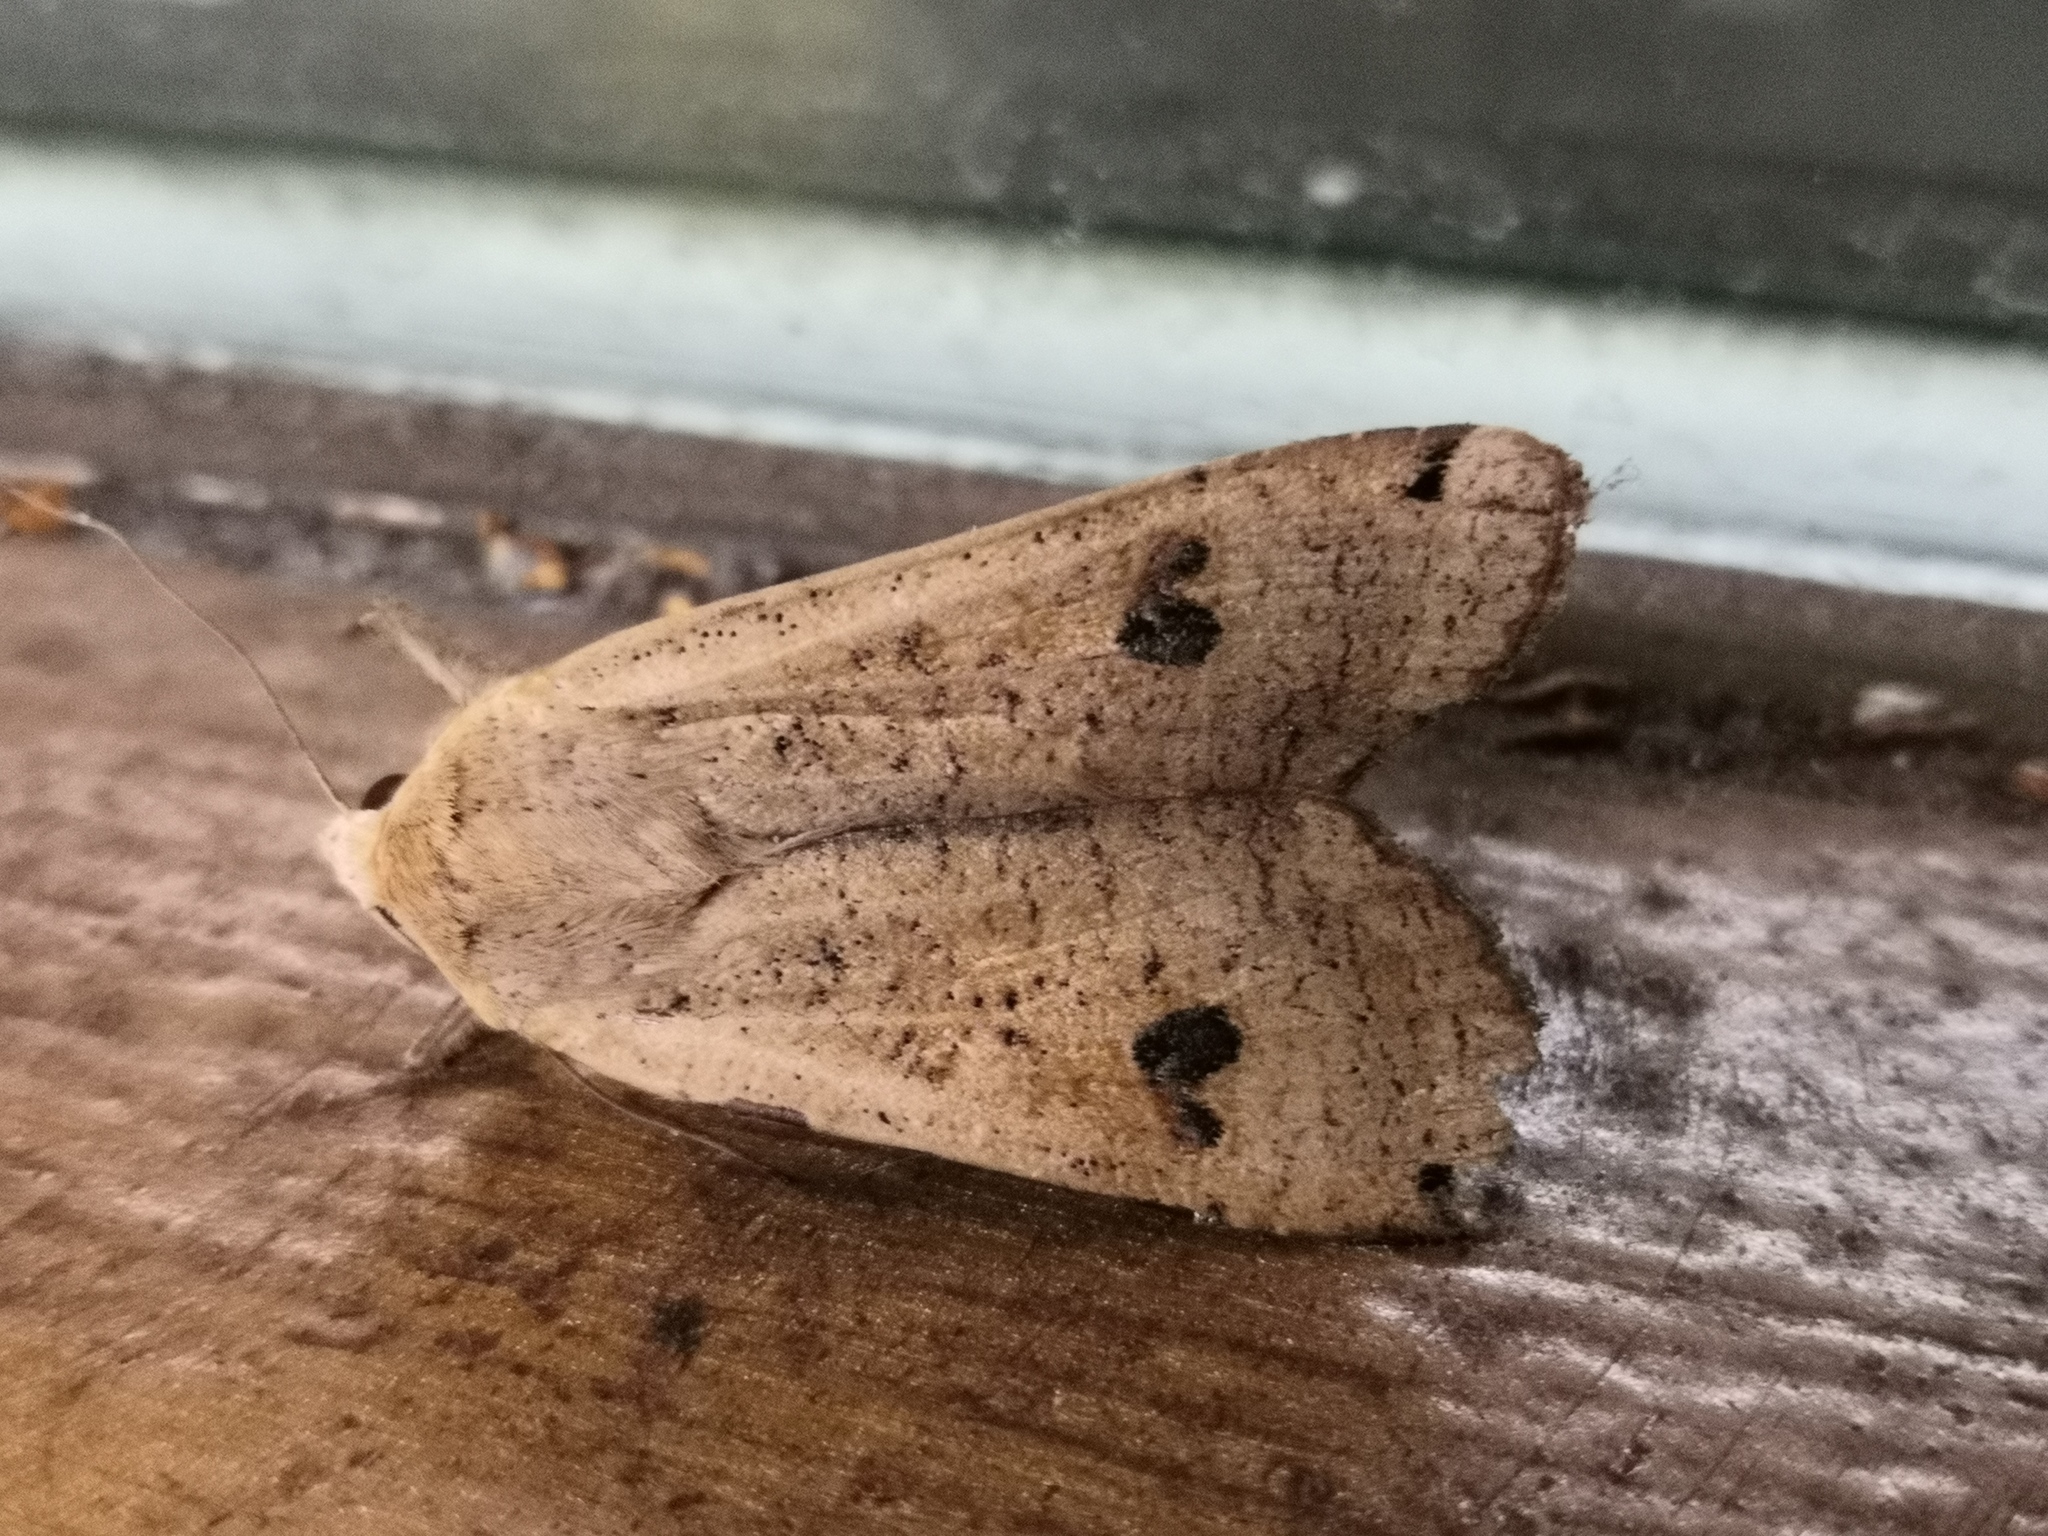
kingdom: Animalia
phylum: Arthropoda
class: Insecta
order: Lepidoptera
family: Noctuidae
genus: Noctua
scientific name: Noctua pronuba
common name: Large yellow underwing
